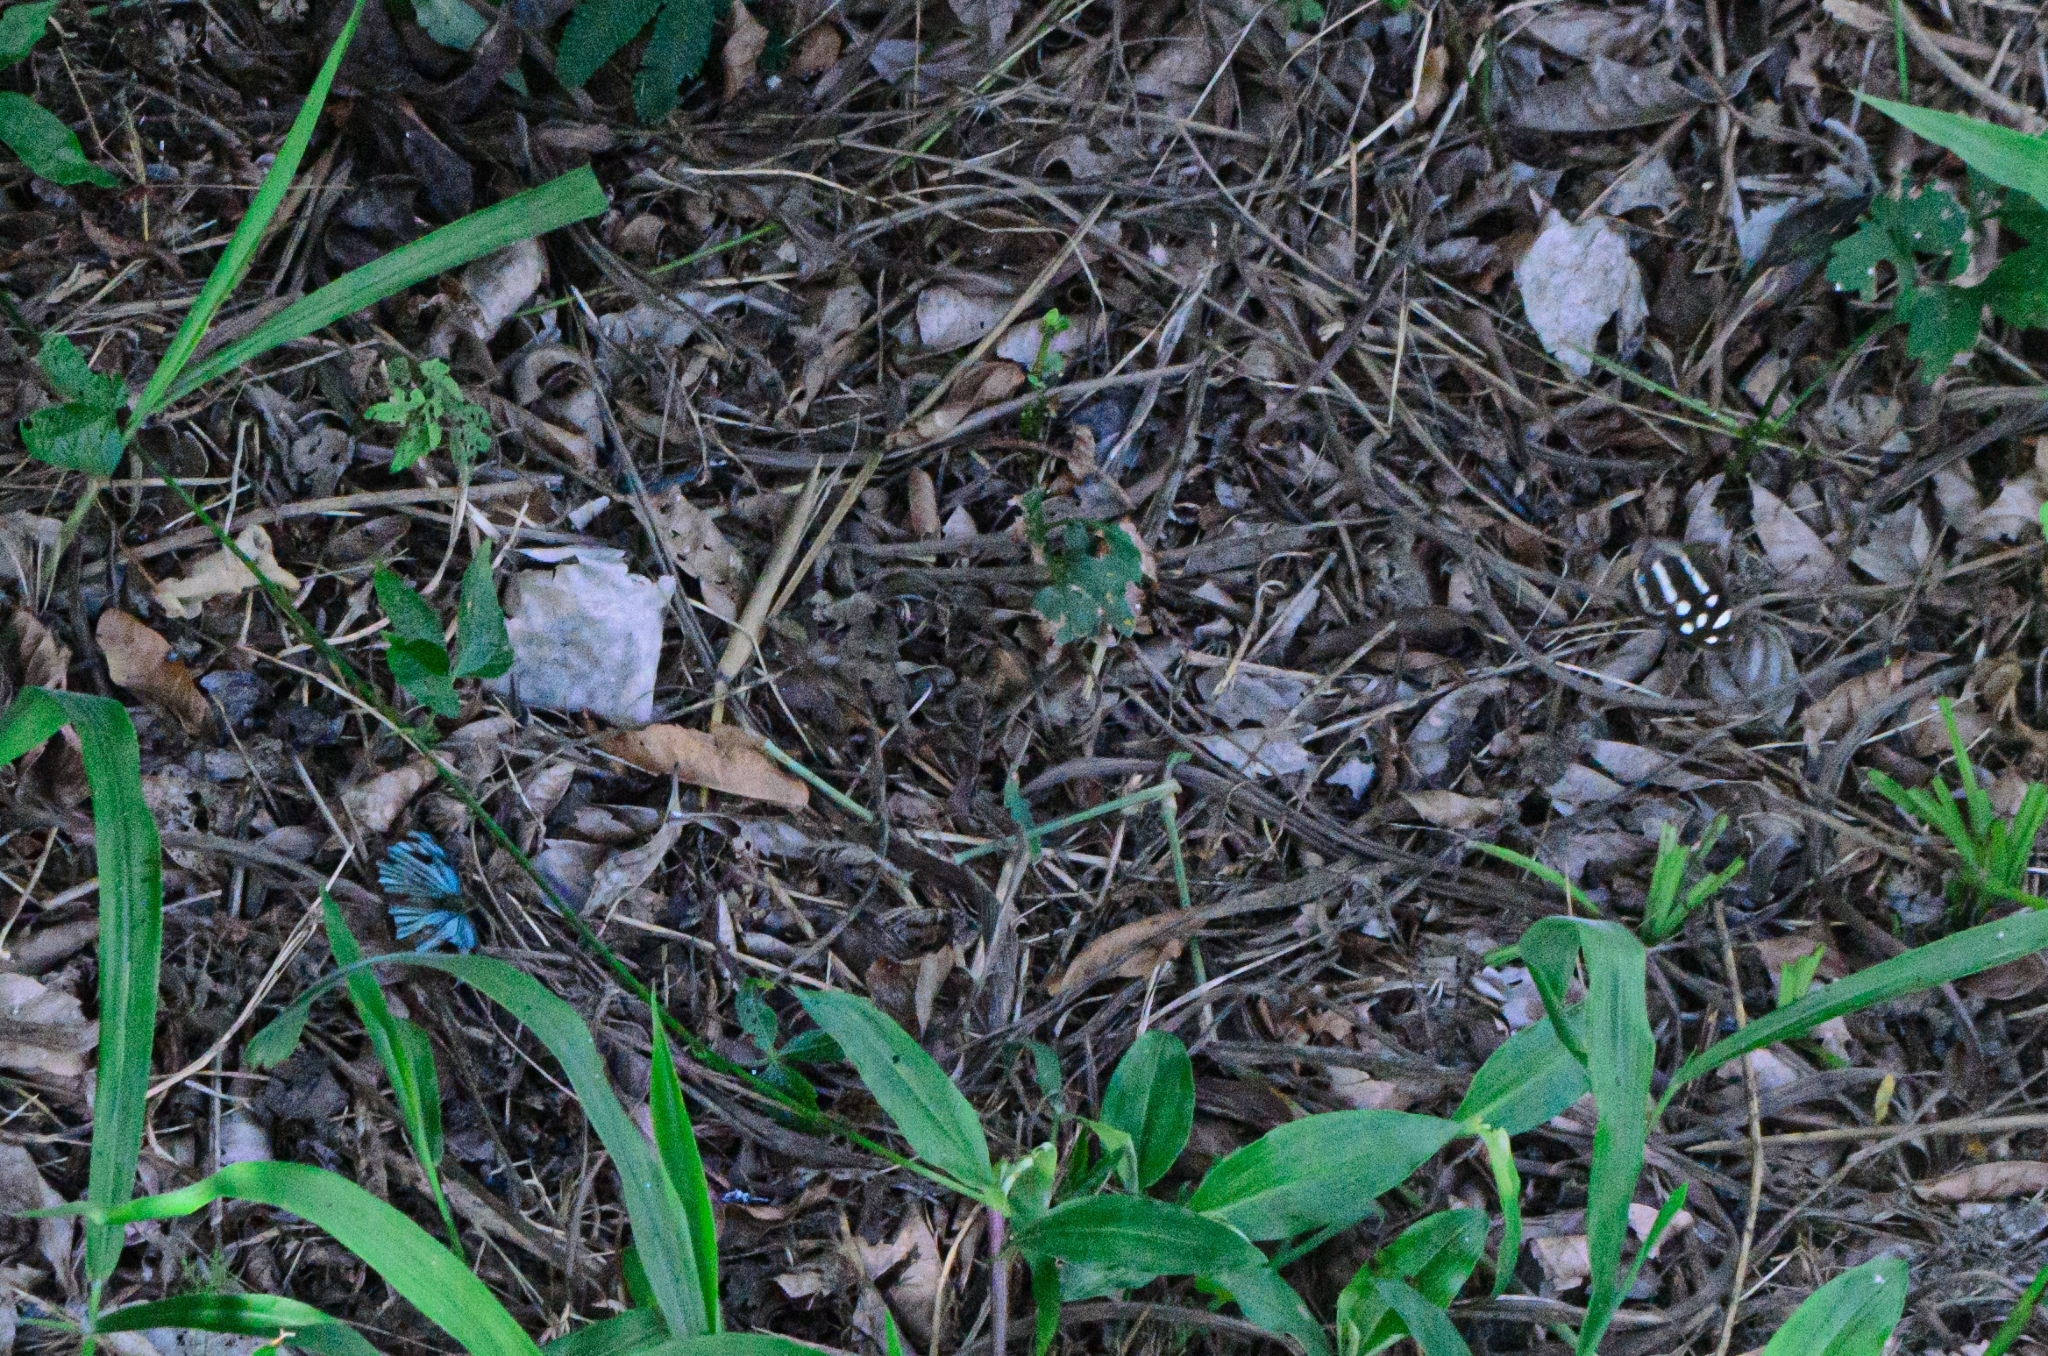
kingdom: Animalia
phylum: Arthropoda
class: Insecta
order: Lepidoptera
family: Nymphalidae
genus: Dynamine
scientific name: Dynamine mylitta
